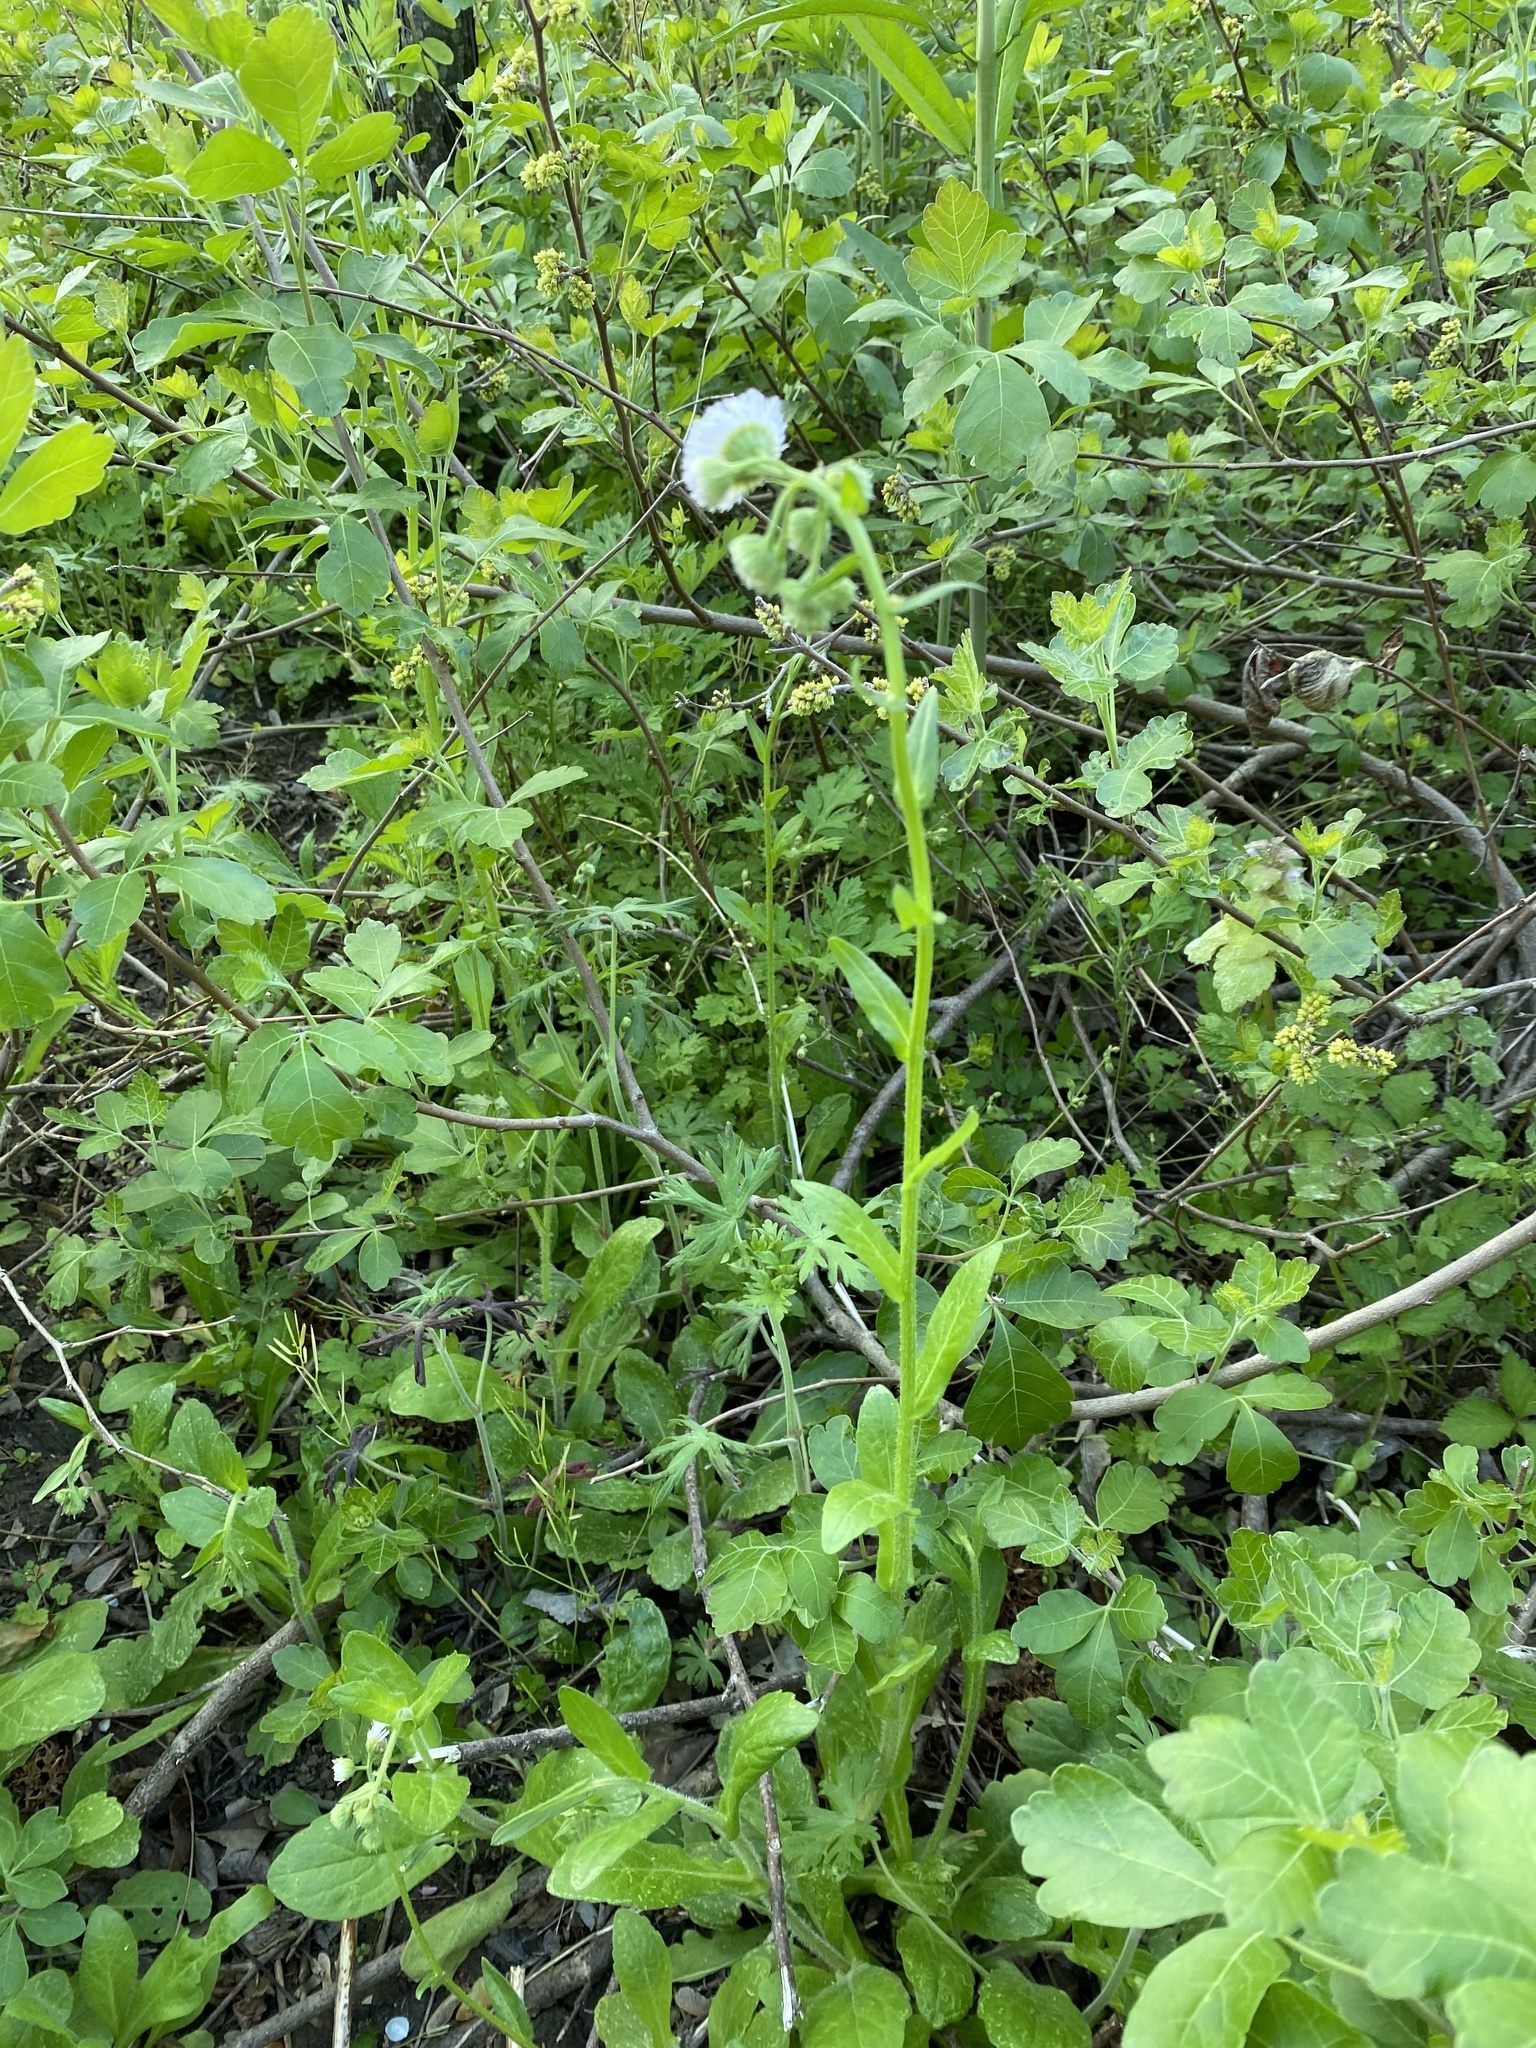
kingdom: Plantae
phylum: Tracheophyta
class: Magnoliopsida
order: Asterales
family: Asteraceae
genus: Erigeron
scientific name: Erigeron philadelphicus
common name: Robin's-plantain
